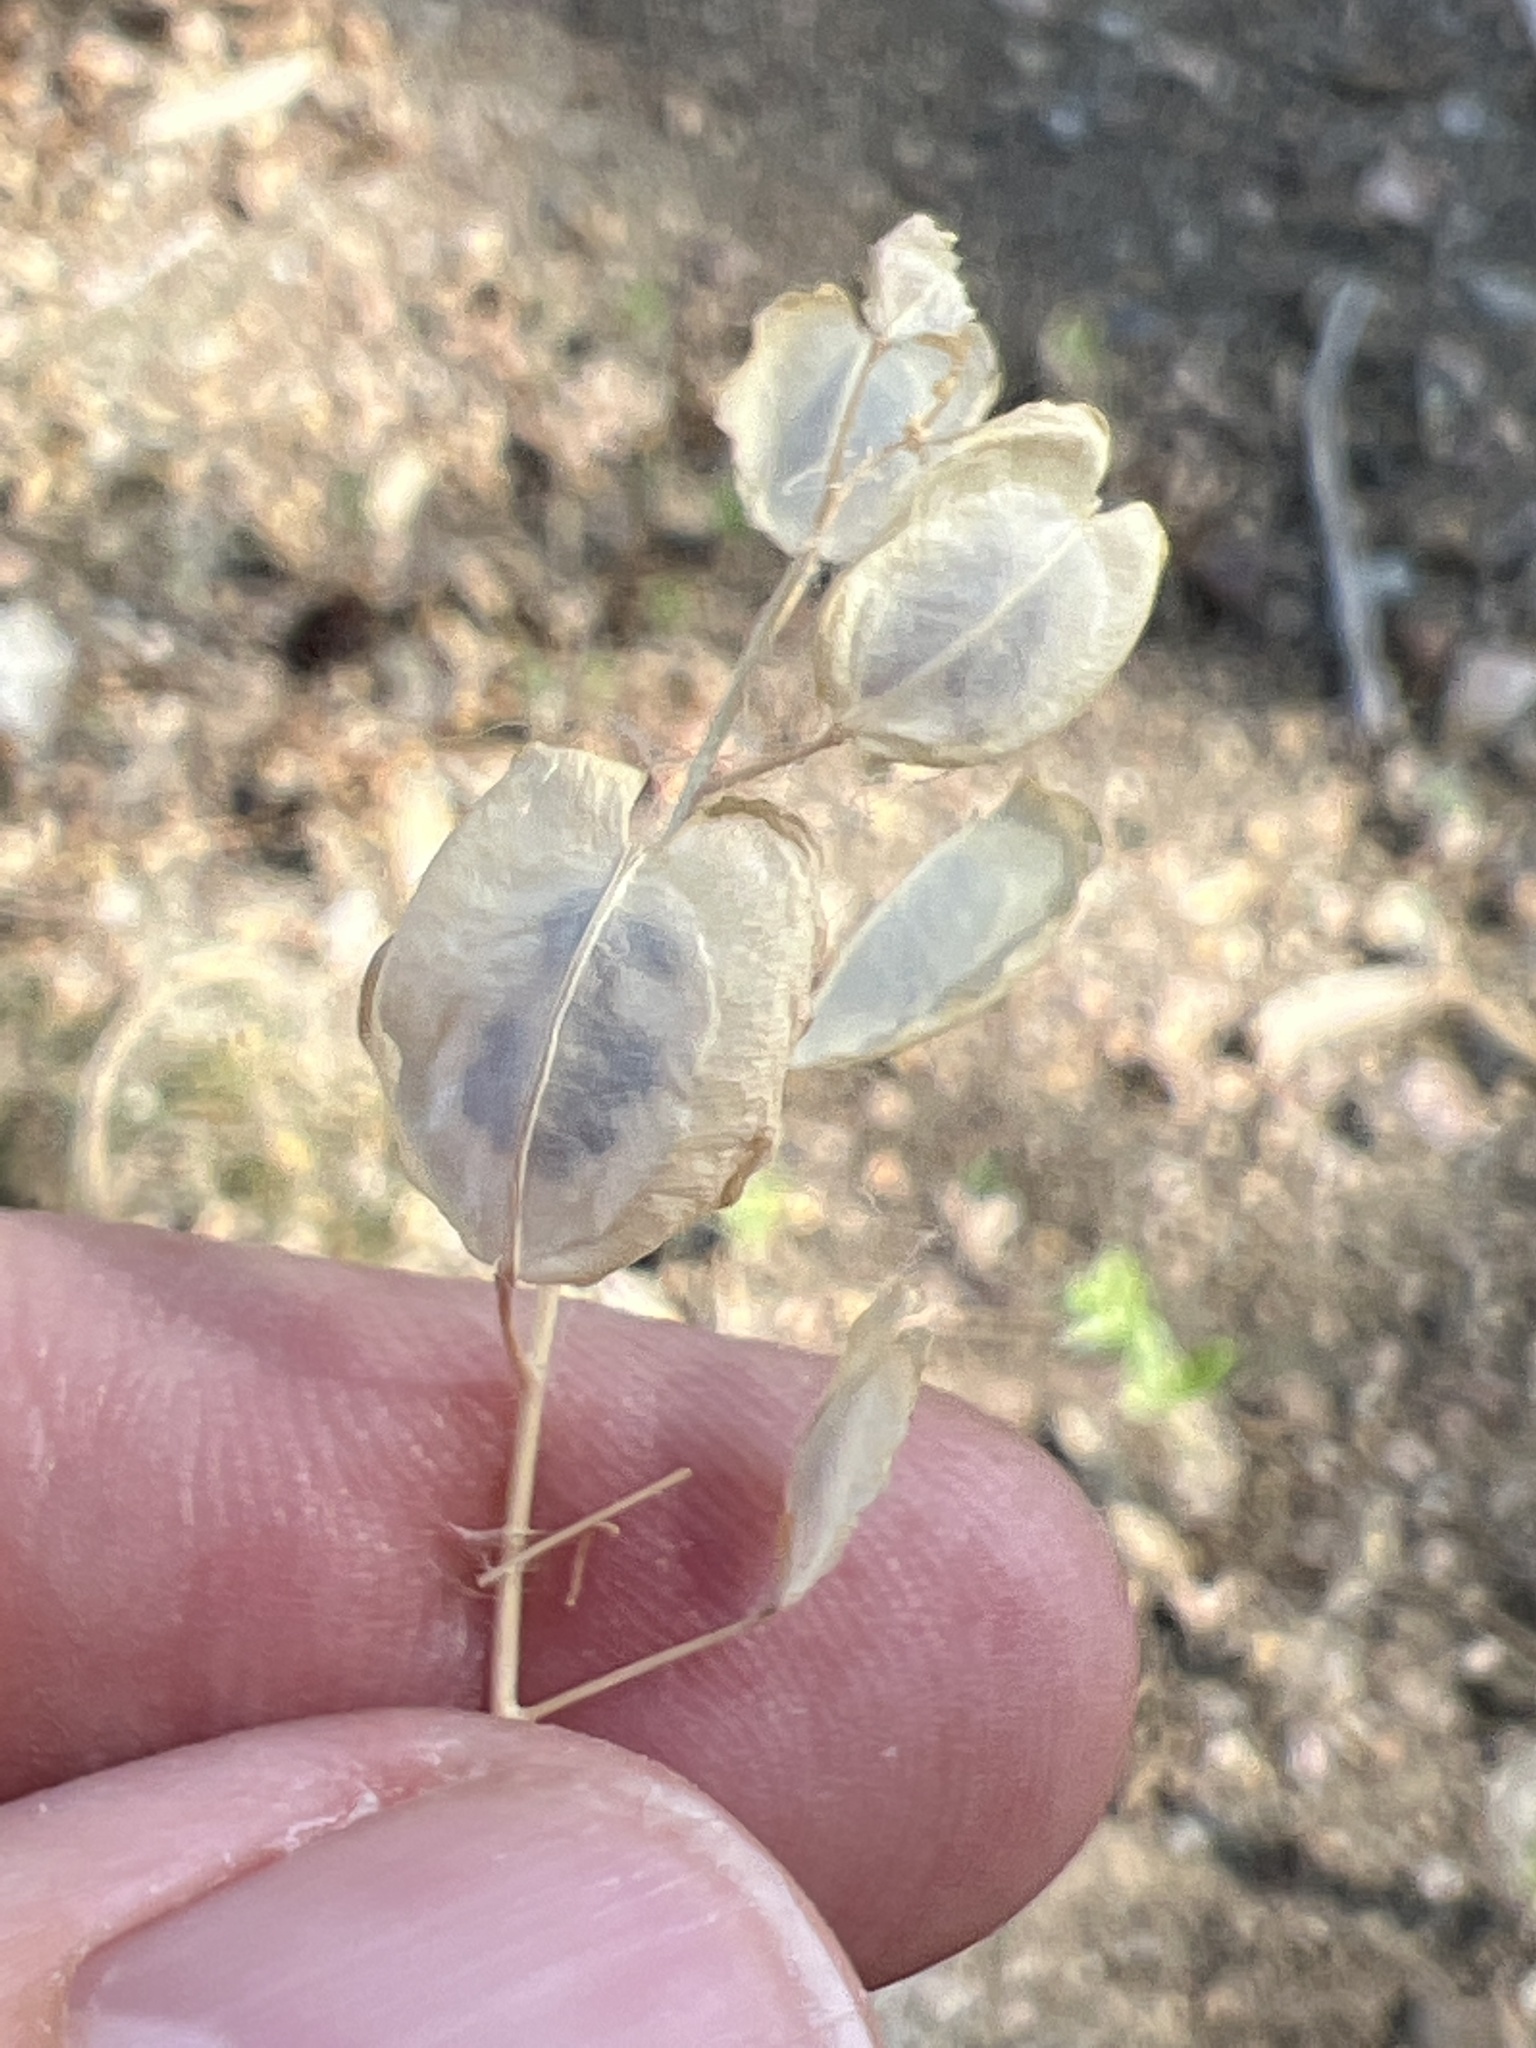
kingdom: Plantae
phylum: Tracheophyta
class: Magnoliopsida
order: Brassicales
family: Brassicaceae
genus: Thlaspi
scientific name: Thlaspi arvense
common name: Field pennycress
